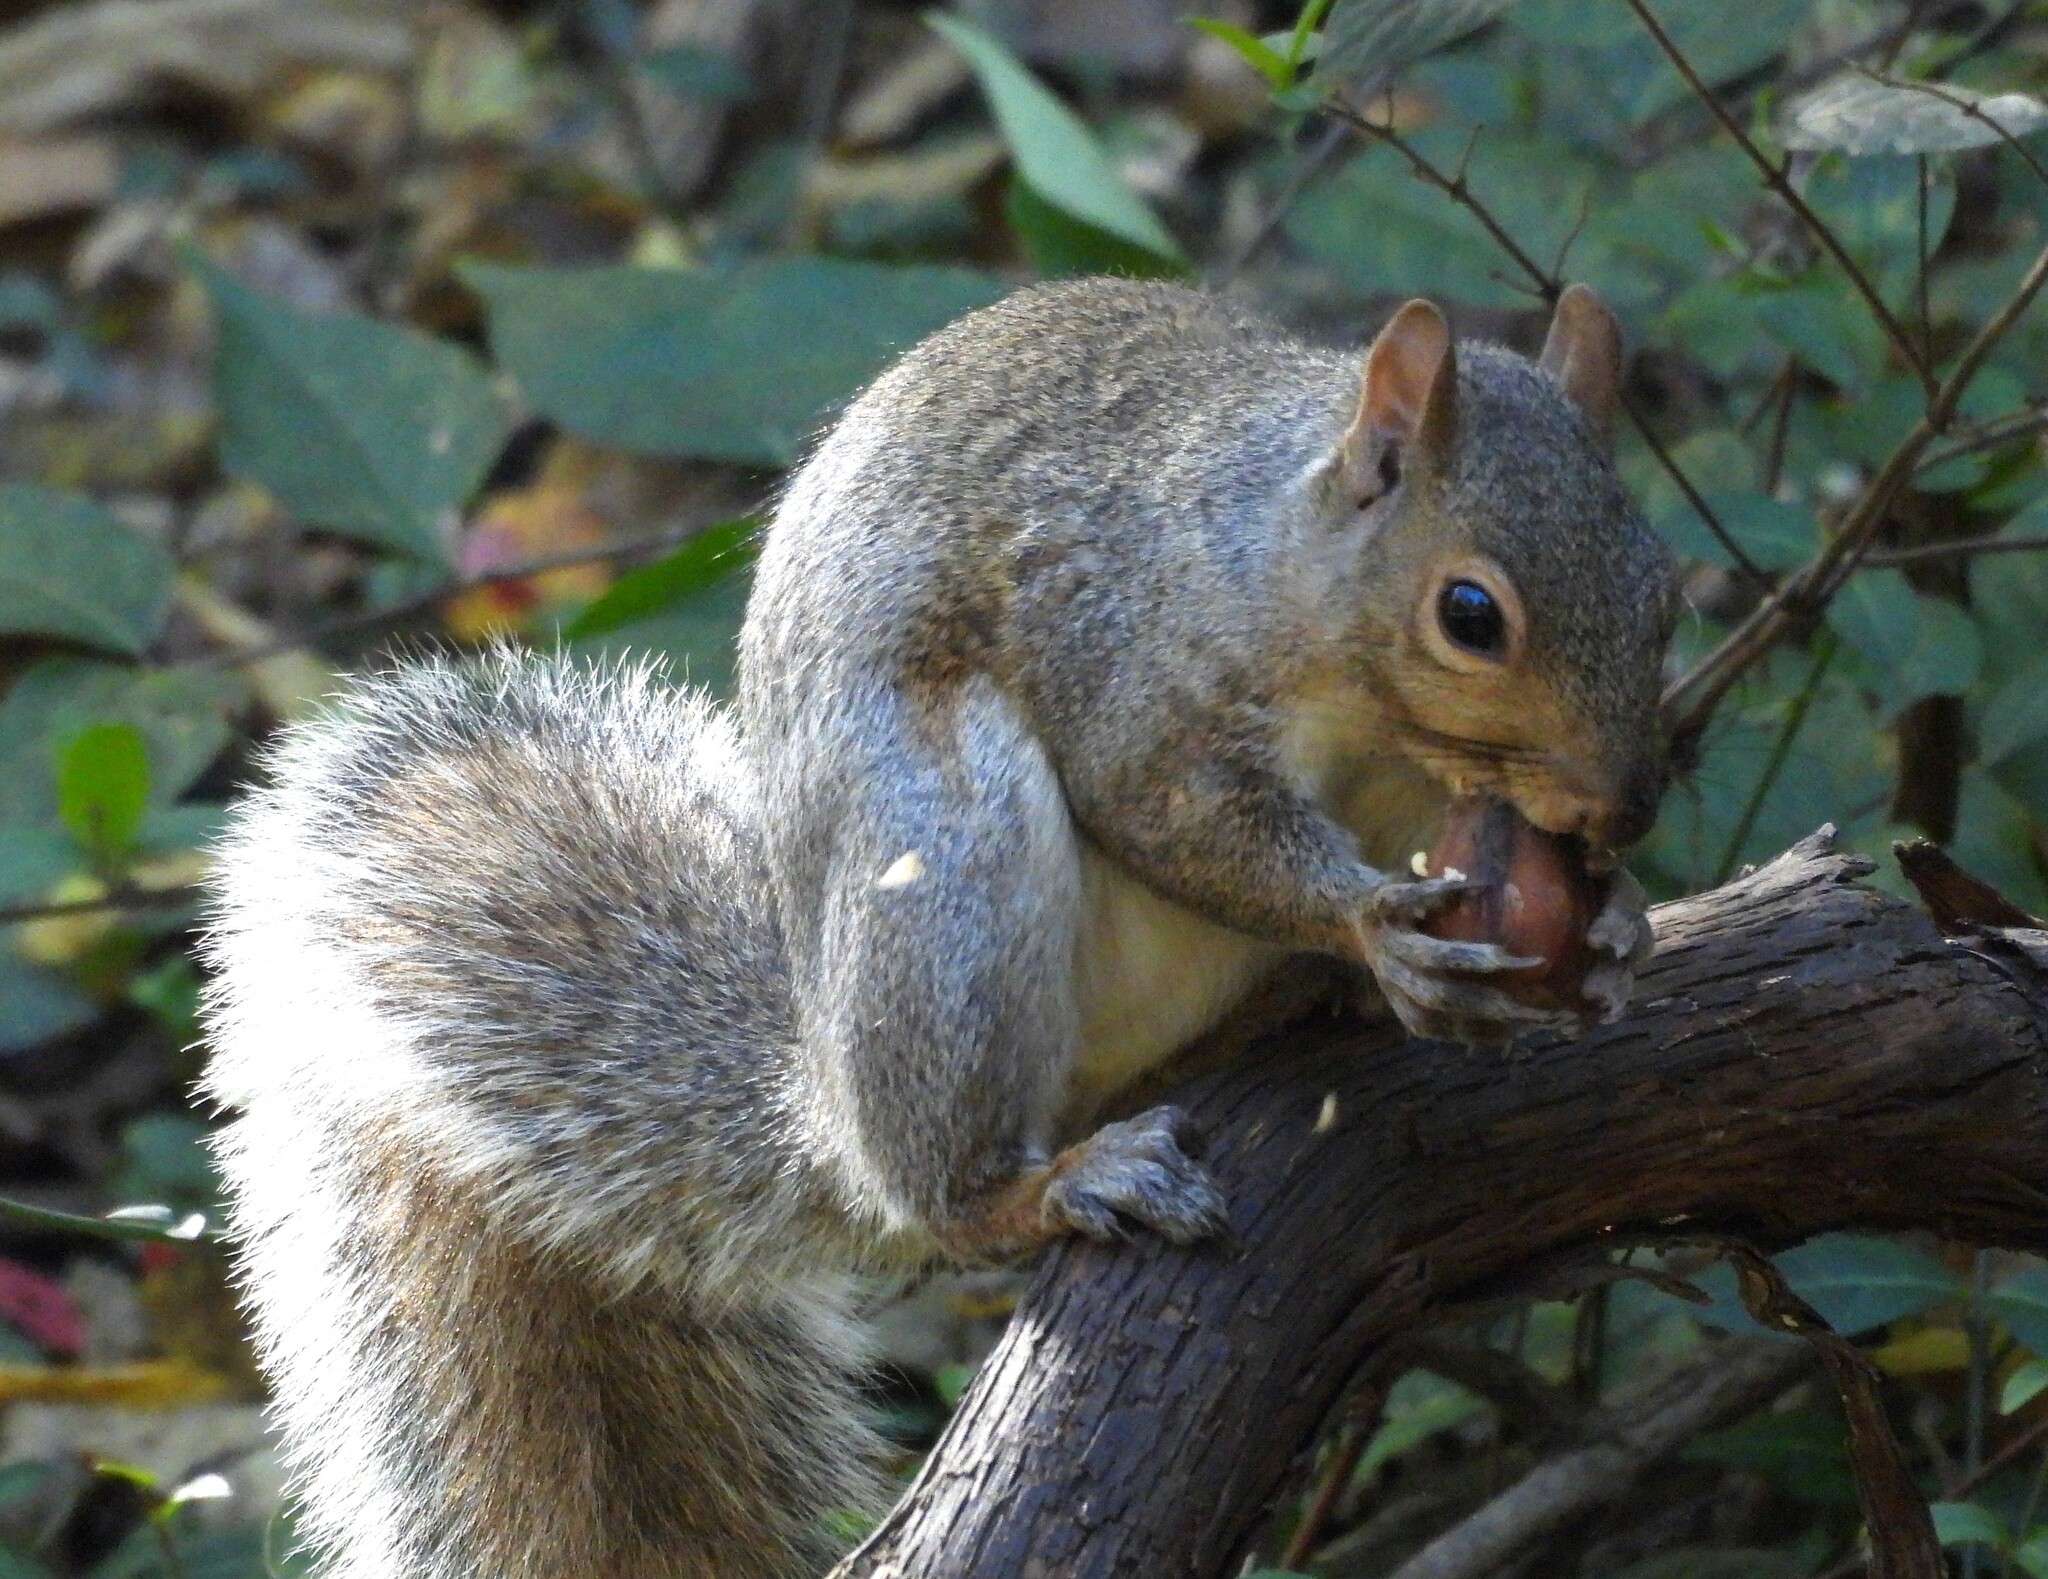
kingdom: Animalia
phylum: Chordata
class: Mammalia
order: Rodentia
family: Sciuridae
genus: Sciurus
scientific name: Sciurus carolinensis
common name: Eastern gray squirrel
